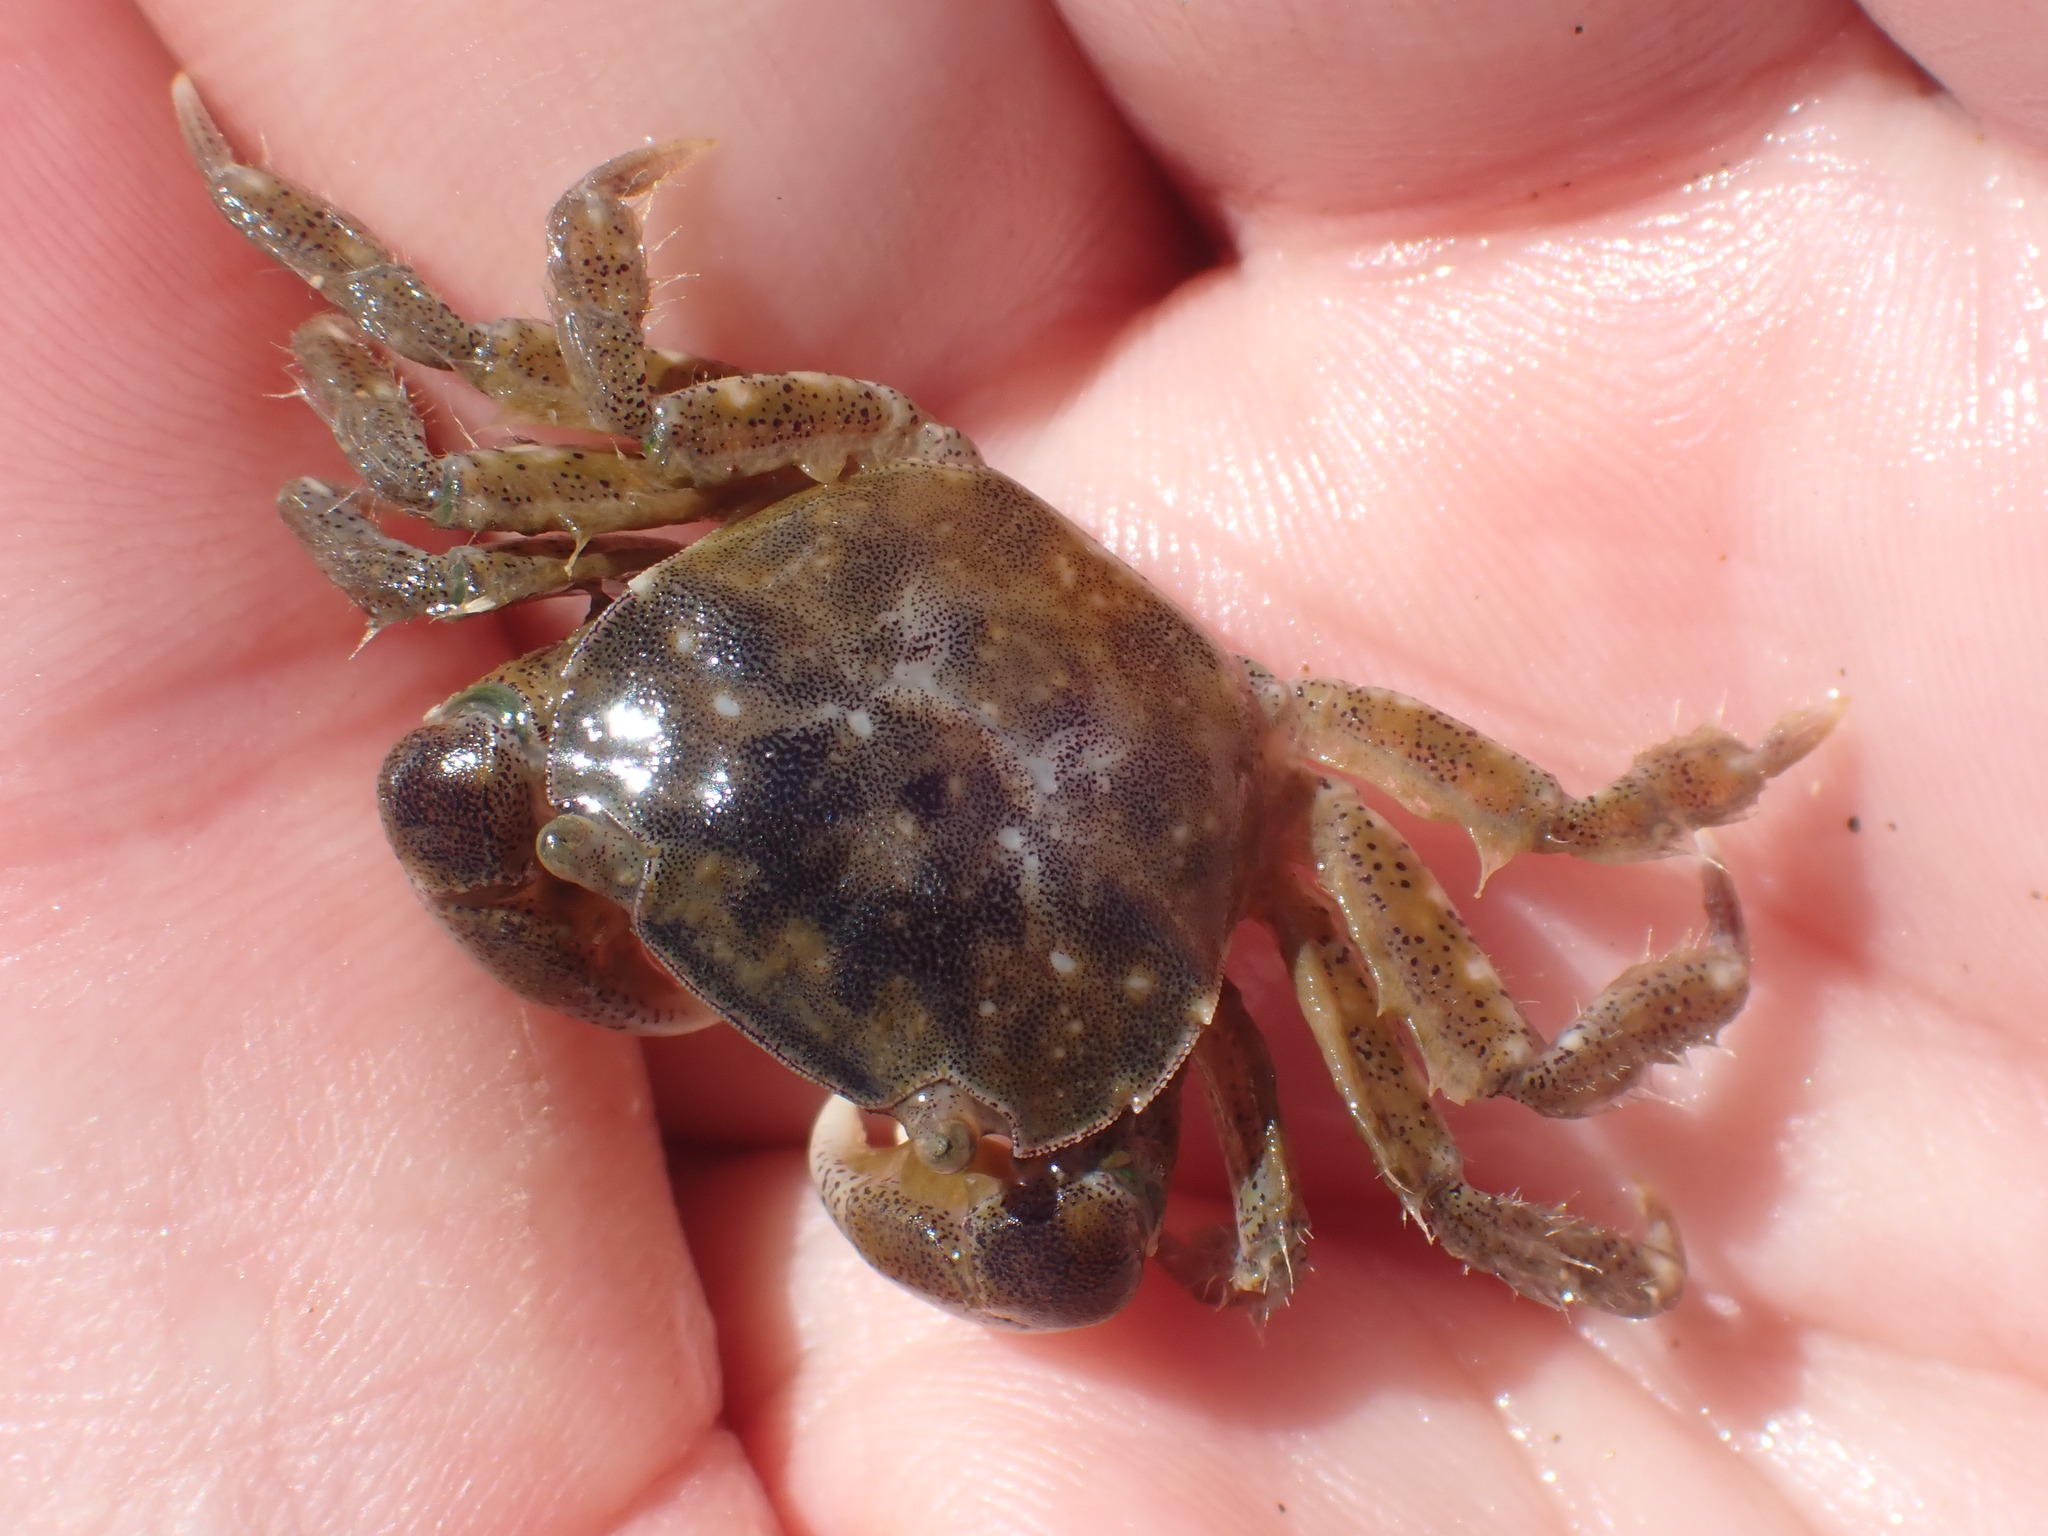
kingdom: Animalia
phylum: Arthropoda
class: Malacostraca
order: Decapoda
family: Varunidae
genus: Hemigrapsus
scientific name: Hemigrapsus crenulatus
